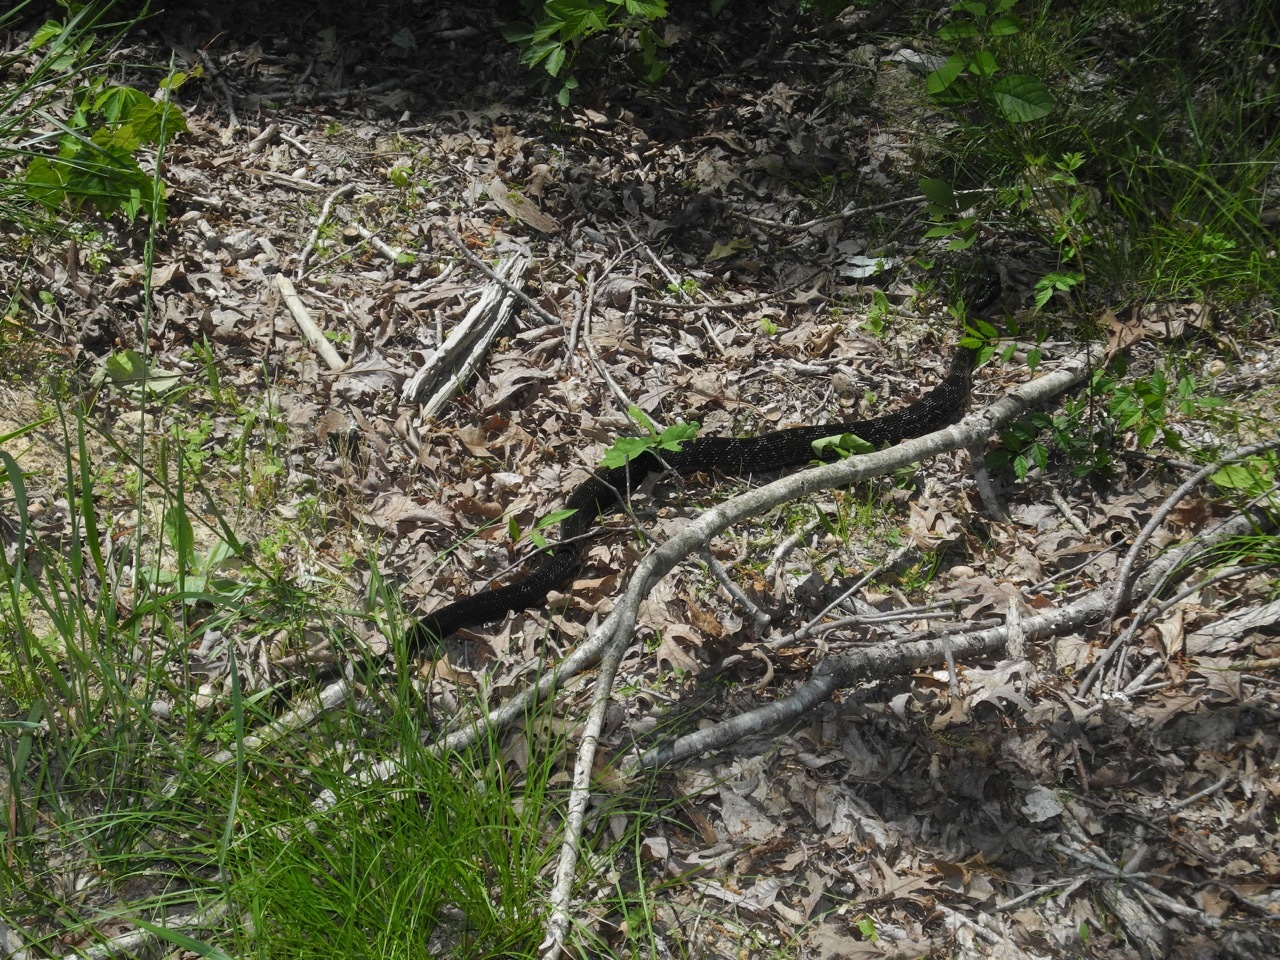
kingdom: Animalia
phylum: Chordata
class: Squamata
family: Colubridae
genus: Pantherophis
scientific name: Pantherophis alleghaniensis
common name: Eastern rat snake
